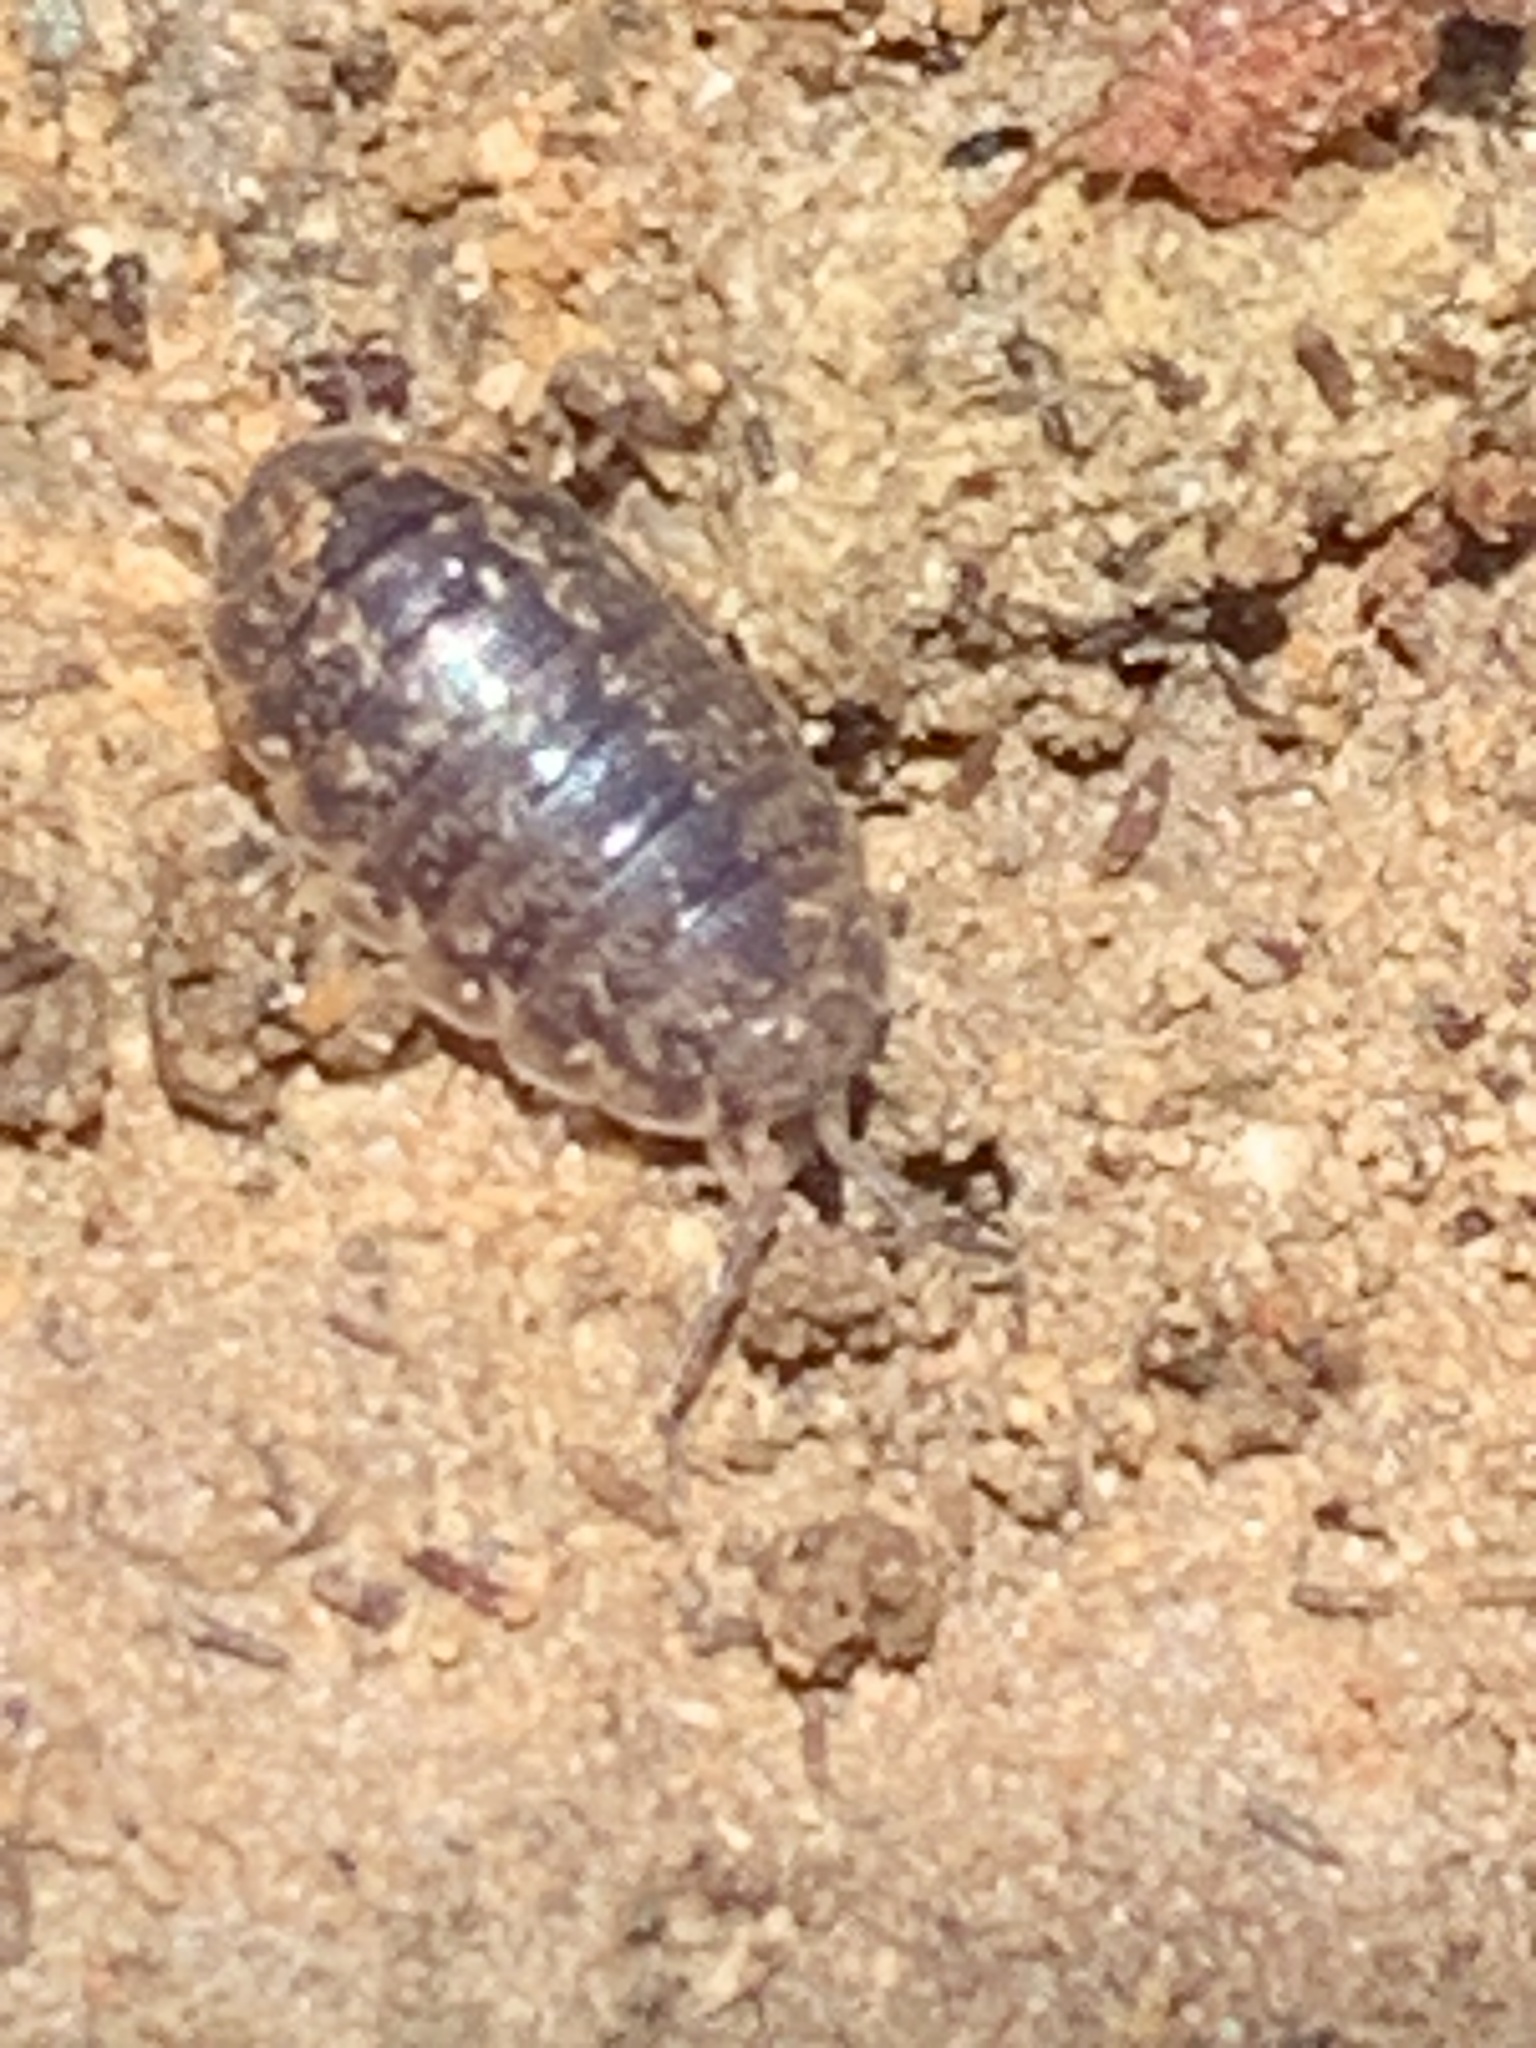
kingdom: Animalia
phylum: Arthropoda
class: Malacostraca
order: Isopoda
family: Alloniscidae
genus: Alloniscus
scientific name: Alloniscus oahuensis
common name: Pillbug
